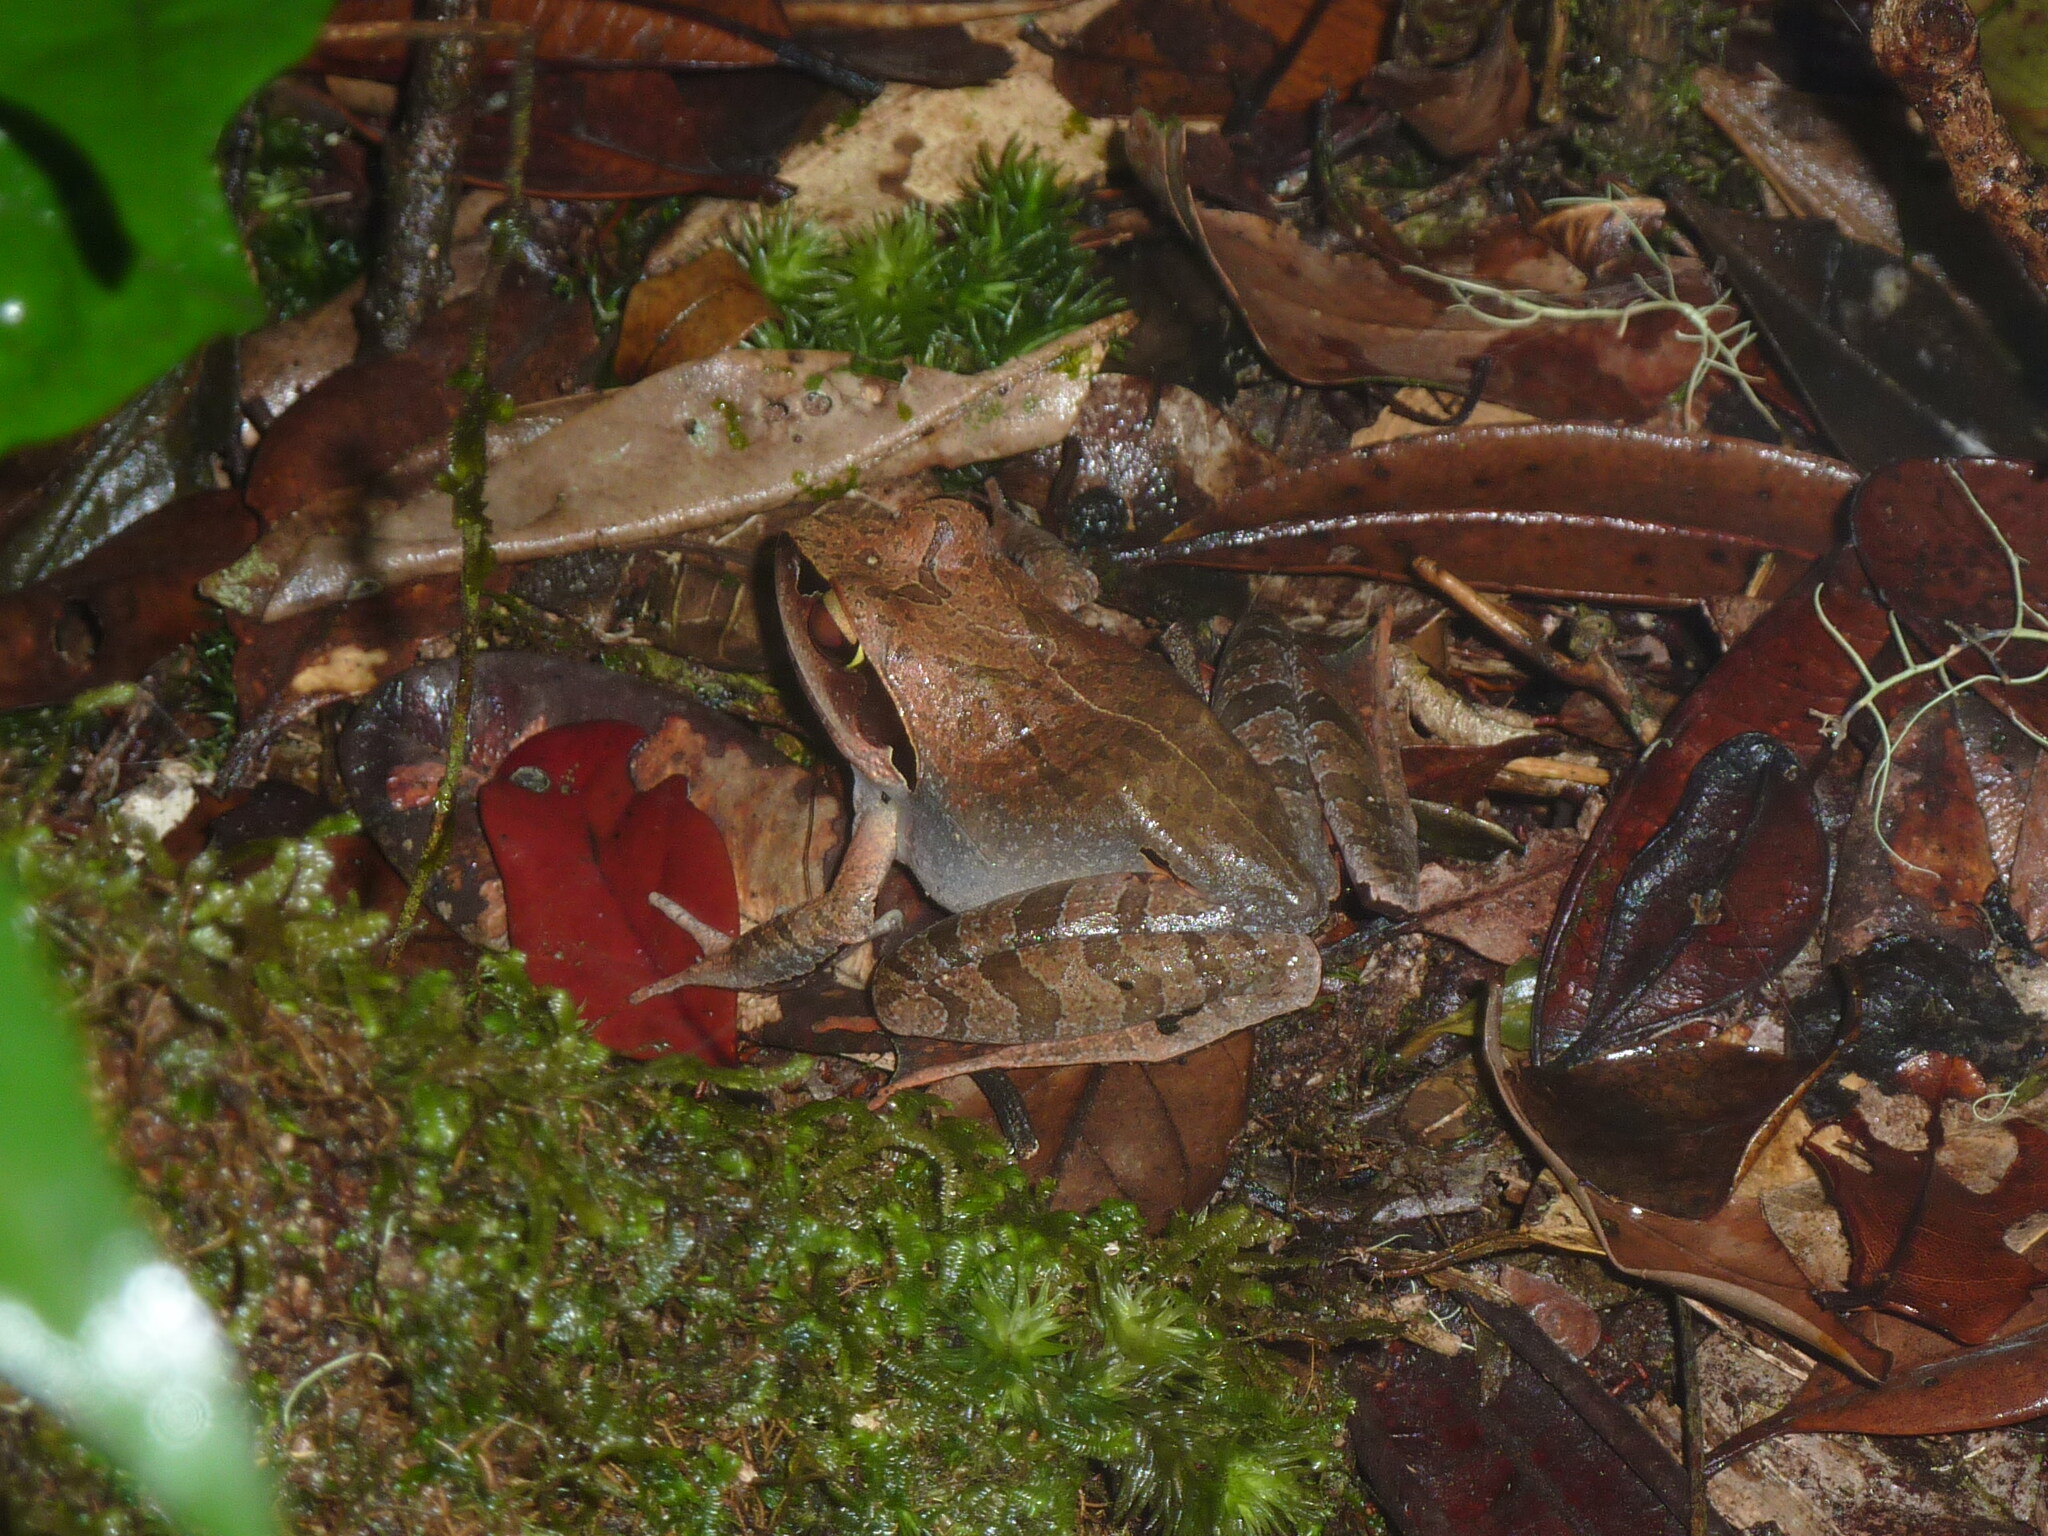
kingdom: Animalia
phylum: Chordata
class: Amphibia
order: Anura
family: Mantellidae
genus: Aglyptodactylus
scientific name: Aglyptodactylus madagascariensis
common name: Madagascar jumping frog
